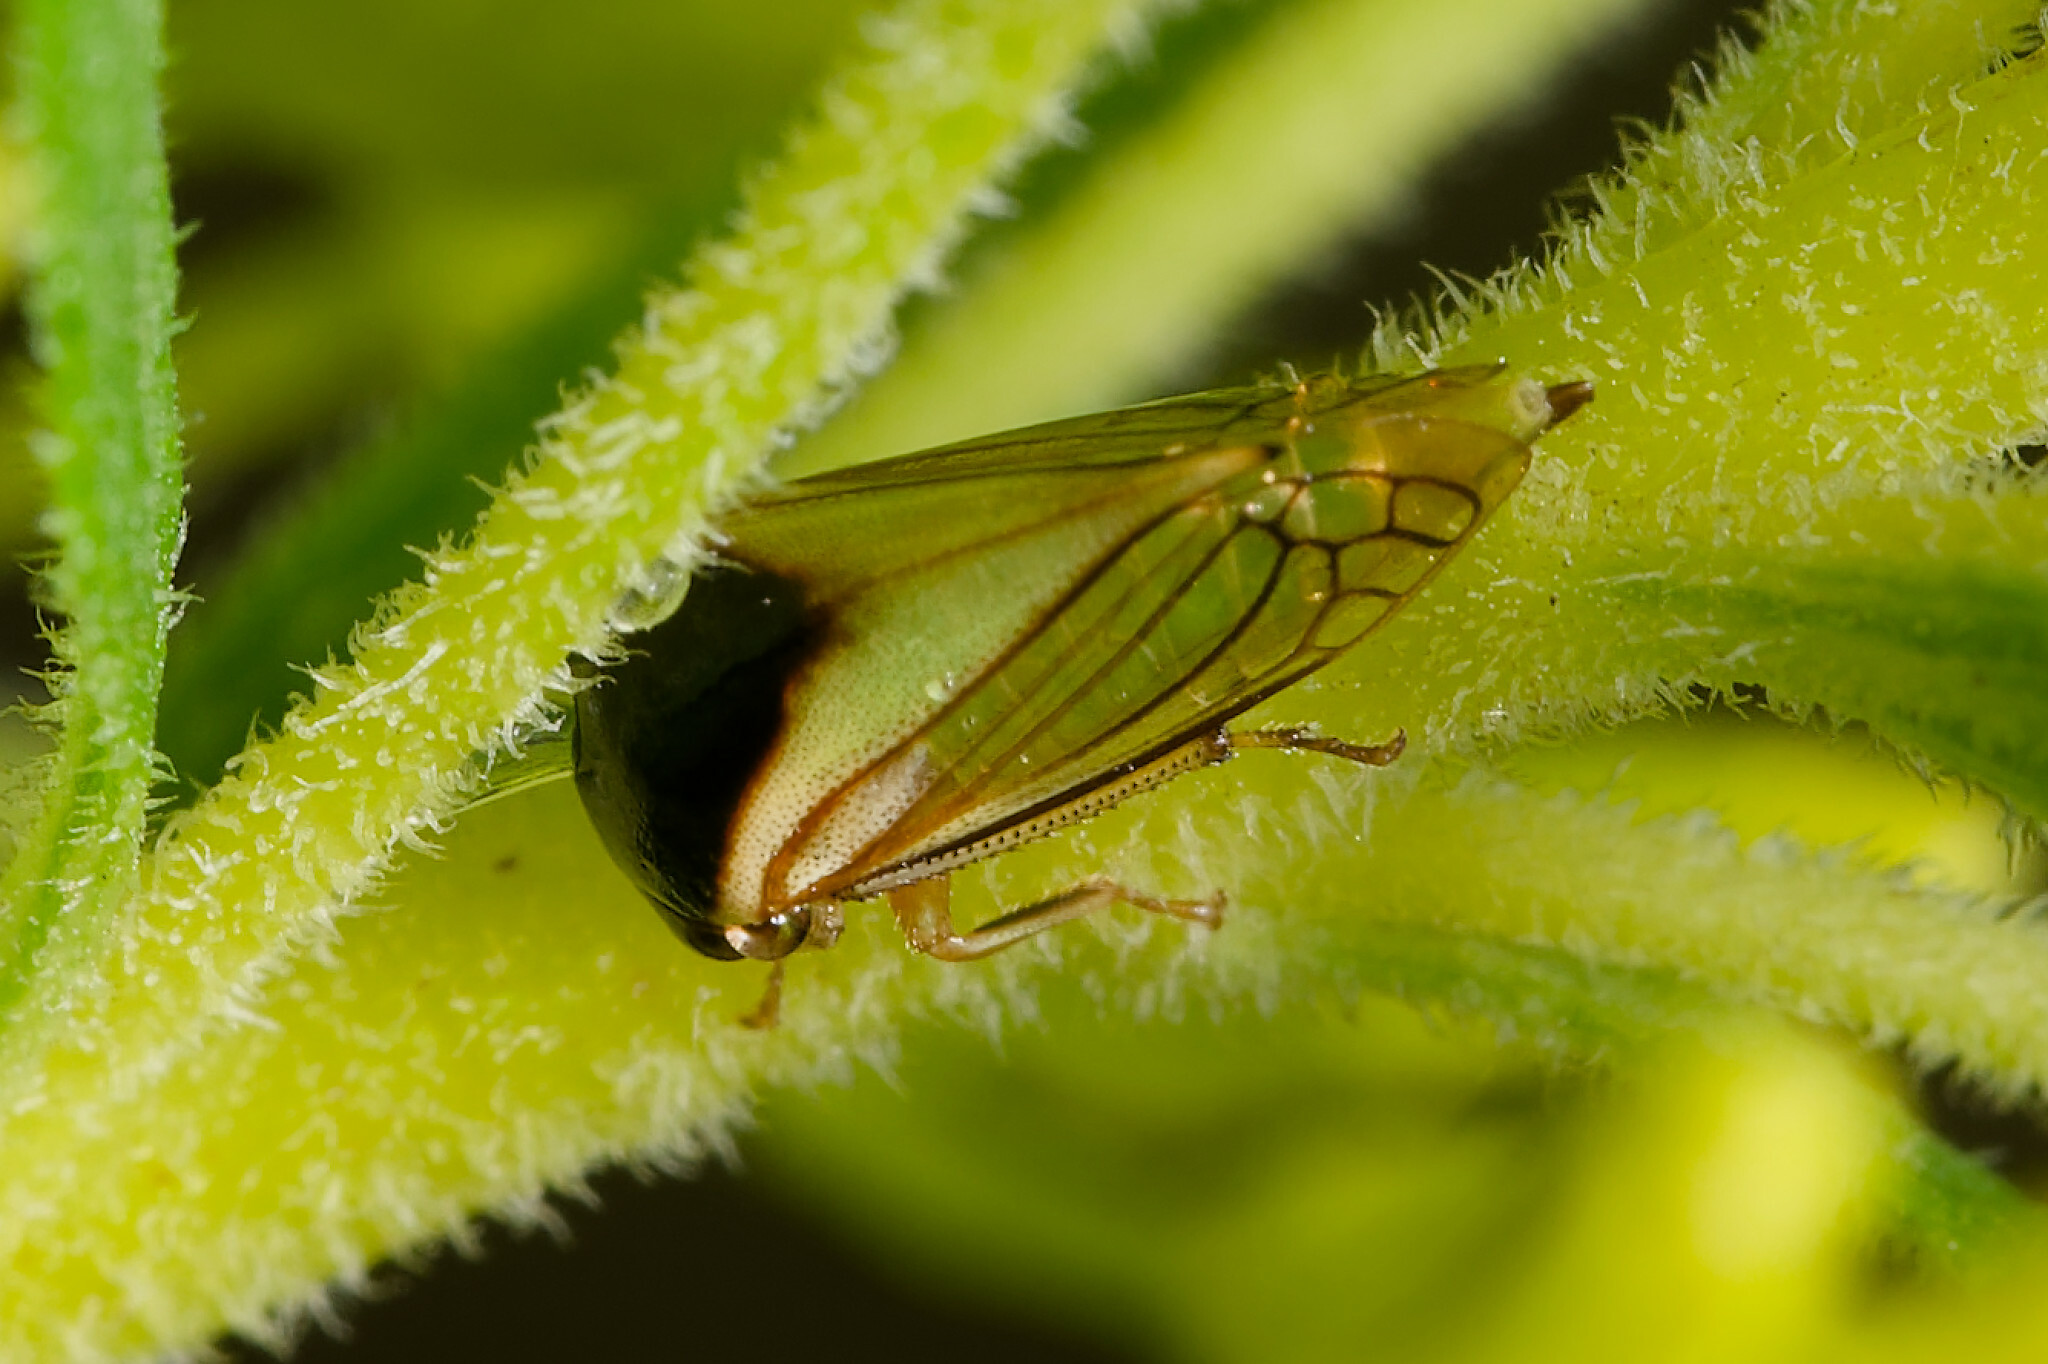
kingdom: Animalia
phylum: Arthropoda
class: Insecta
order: Hemiptera
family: Membracidae
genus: Acutalis
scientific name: Acutalis tartarea
